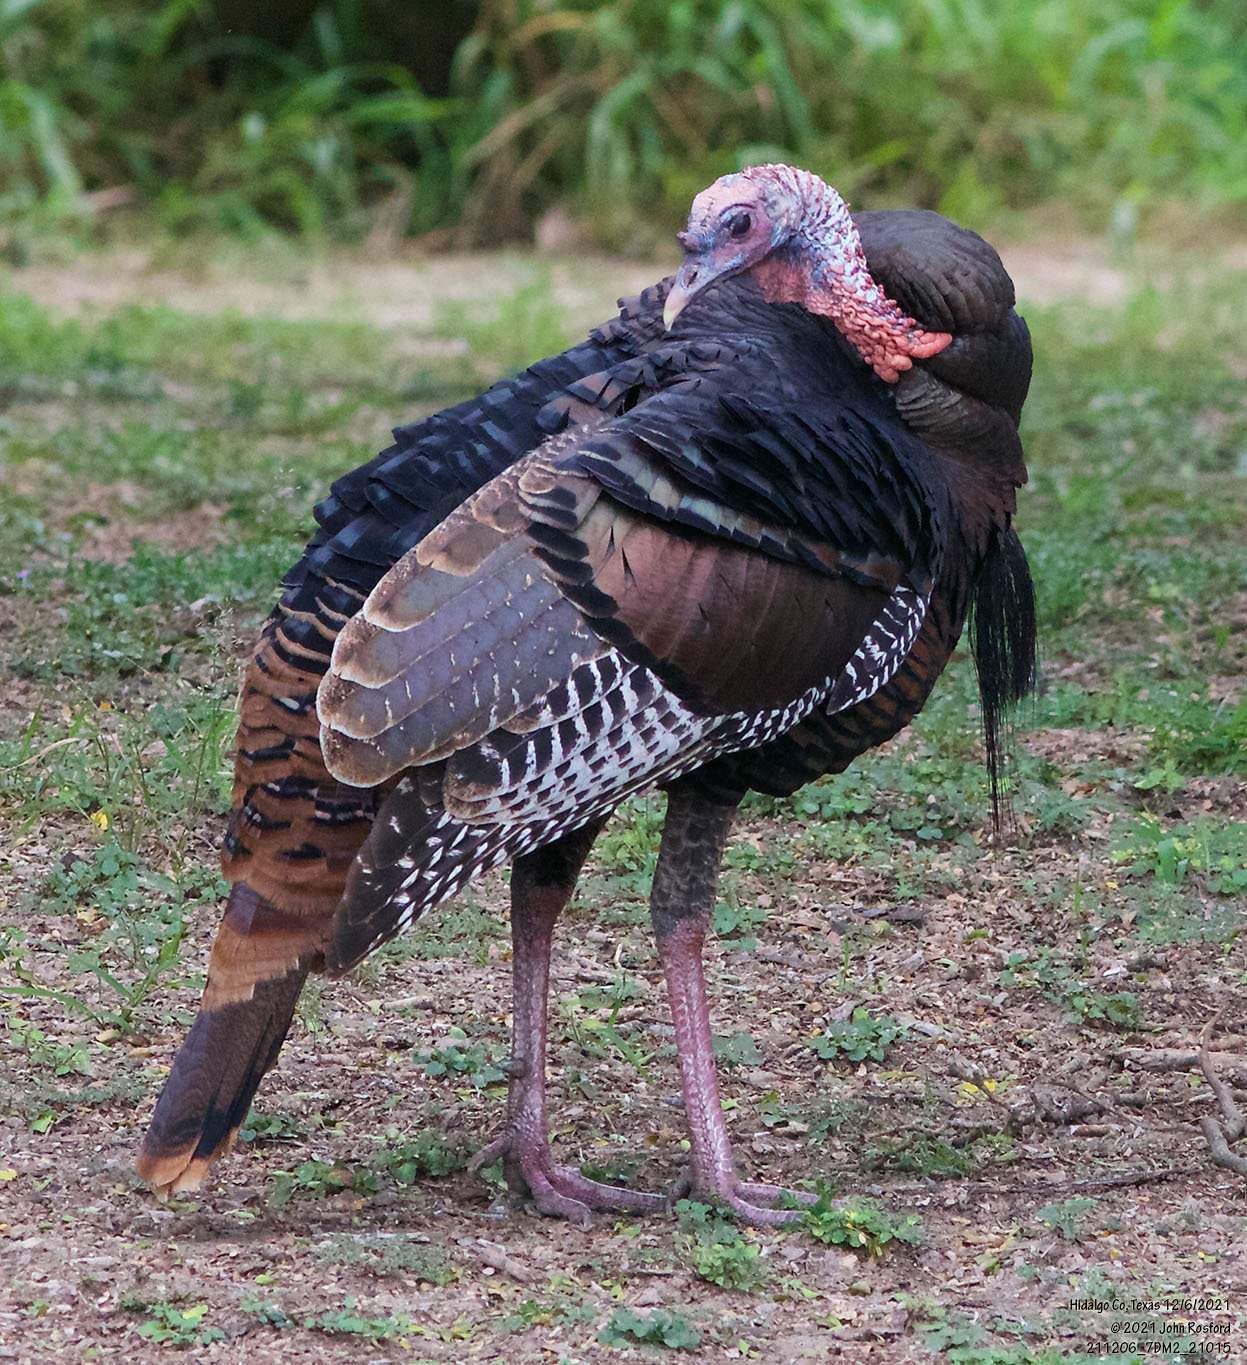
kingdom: Animalia
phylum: Chordata
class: Aves
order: Galliformes
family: Phasianidae
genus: Meleagris
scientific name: Meleagris gallopavo
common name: Wild turkey
